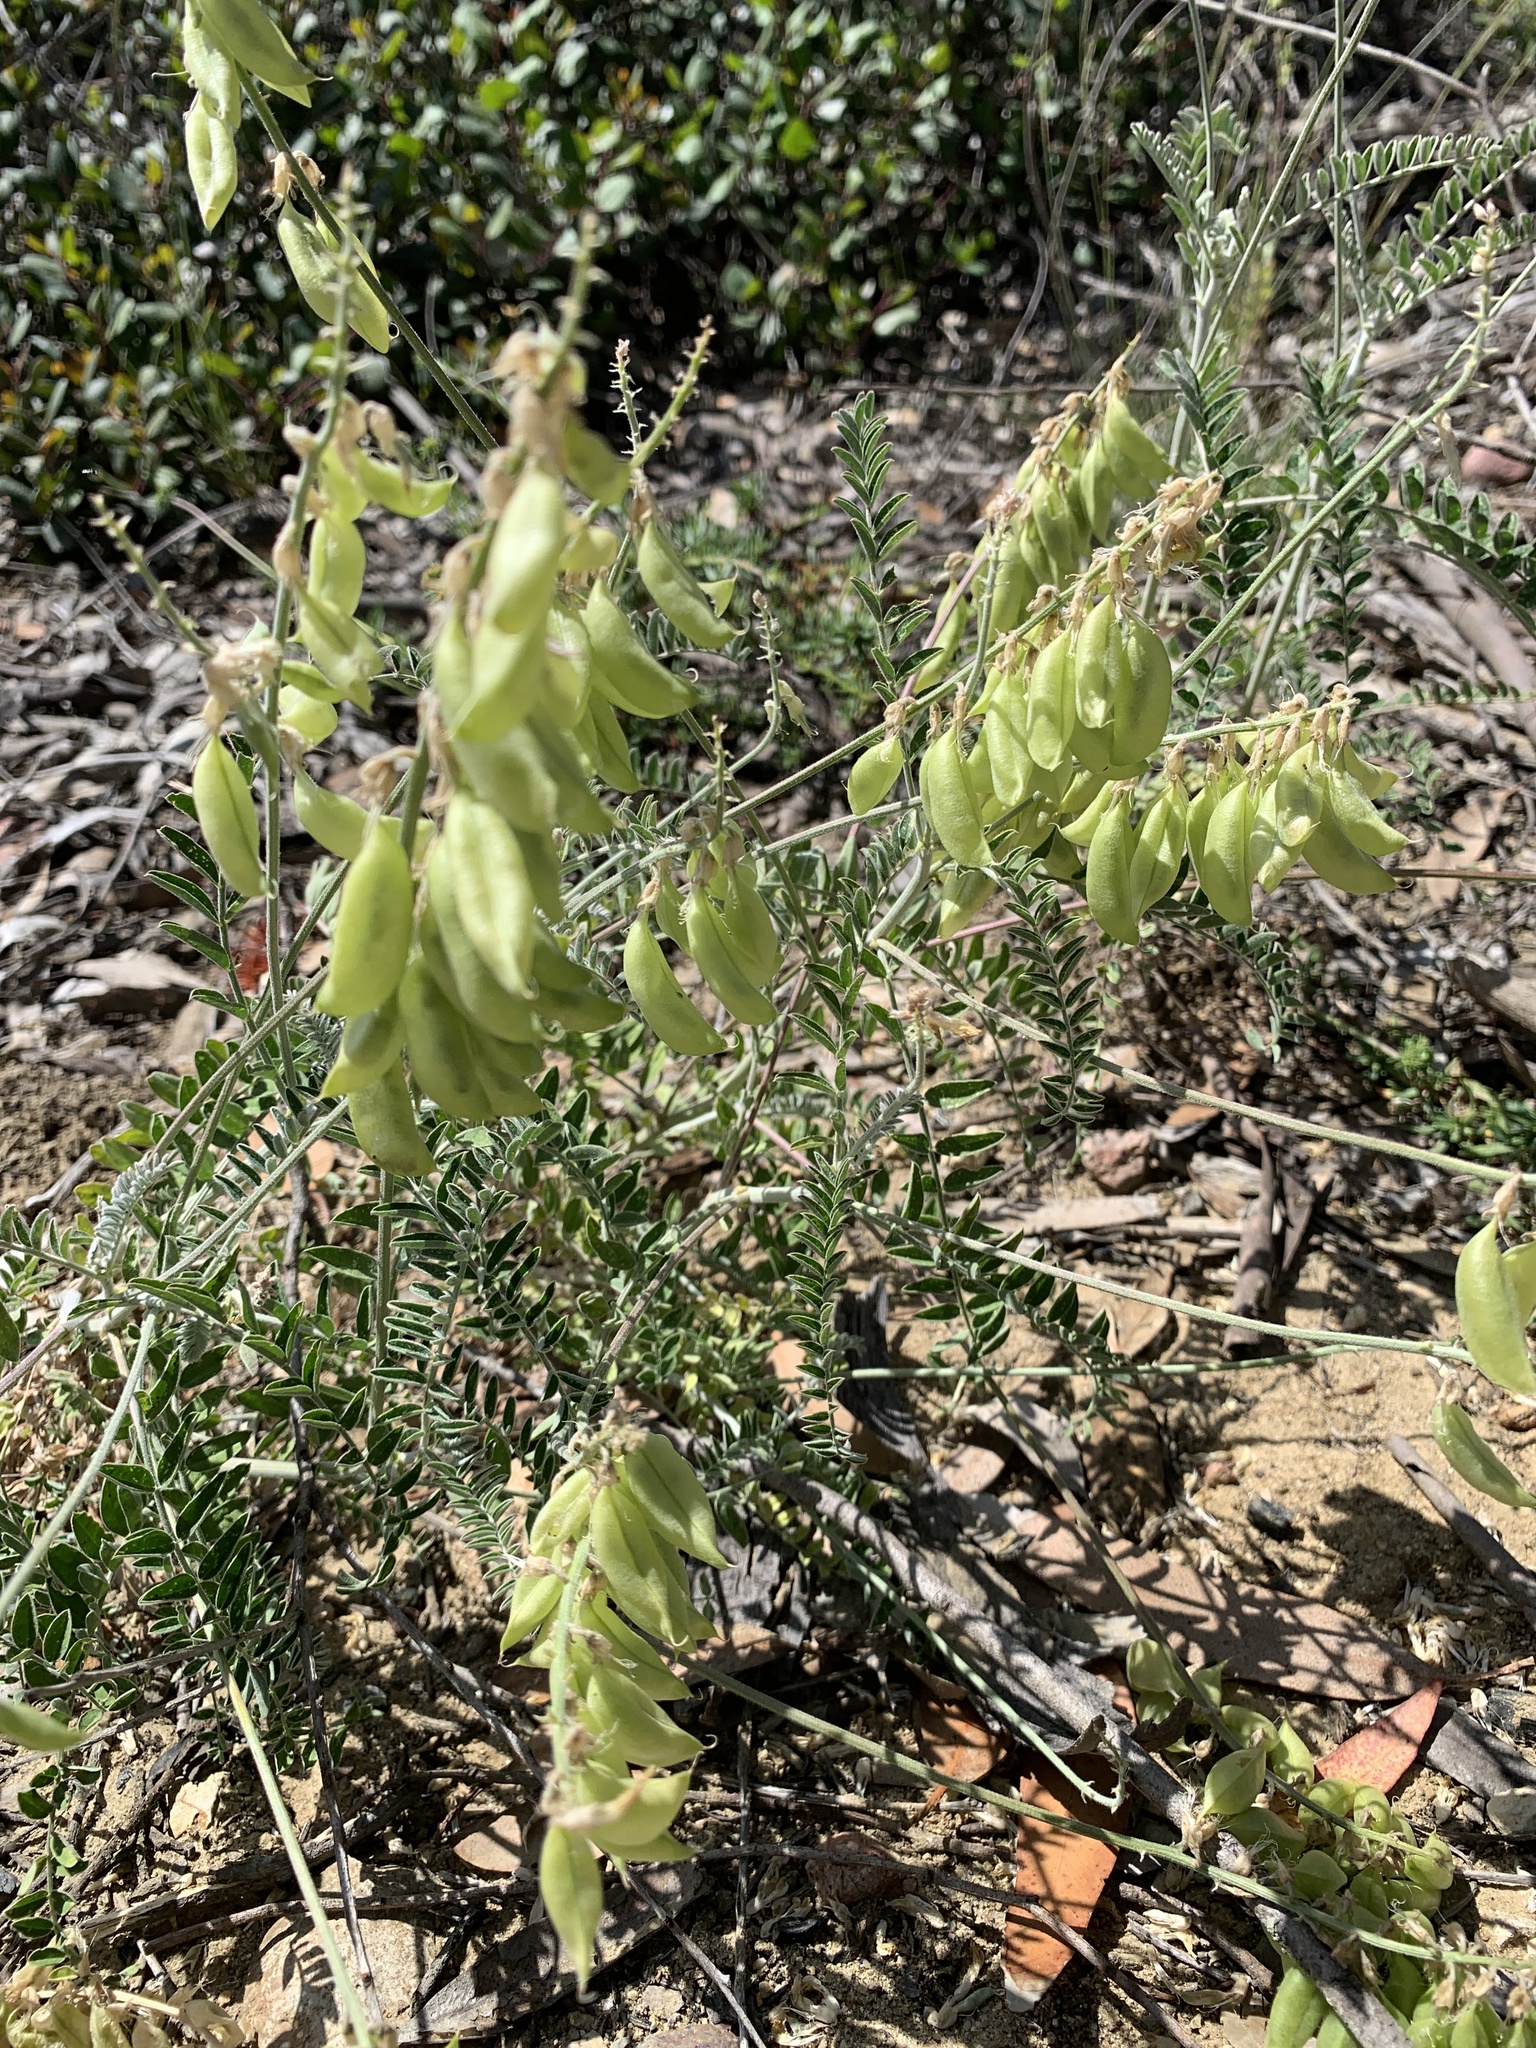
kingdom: Plantae
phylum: Tracheophyta
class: Magnoliopsida
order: Fabales
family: Fabaceae
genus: Astragalus
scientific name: Astragalus trichopodus
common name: Santa barbara milk-vetch
